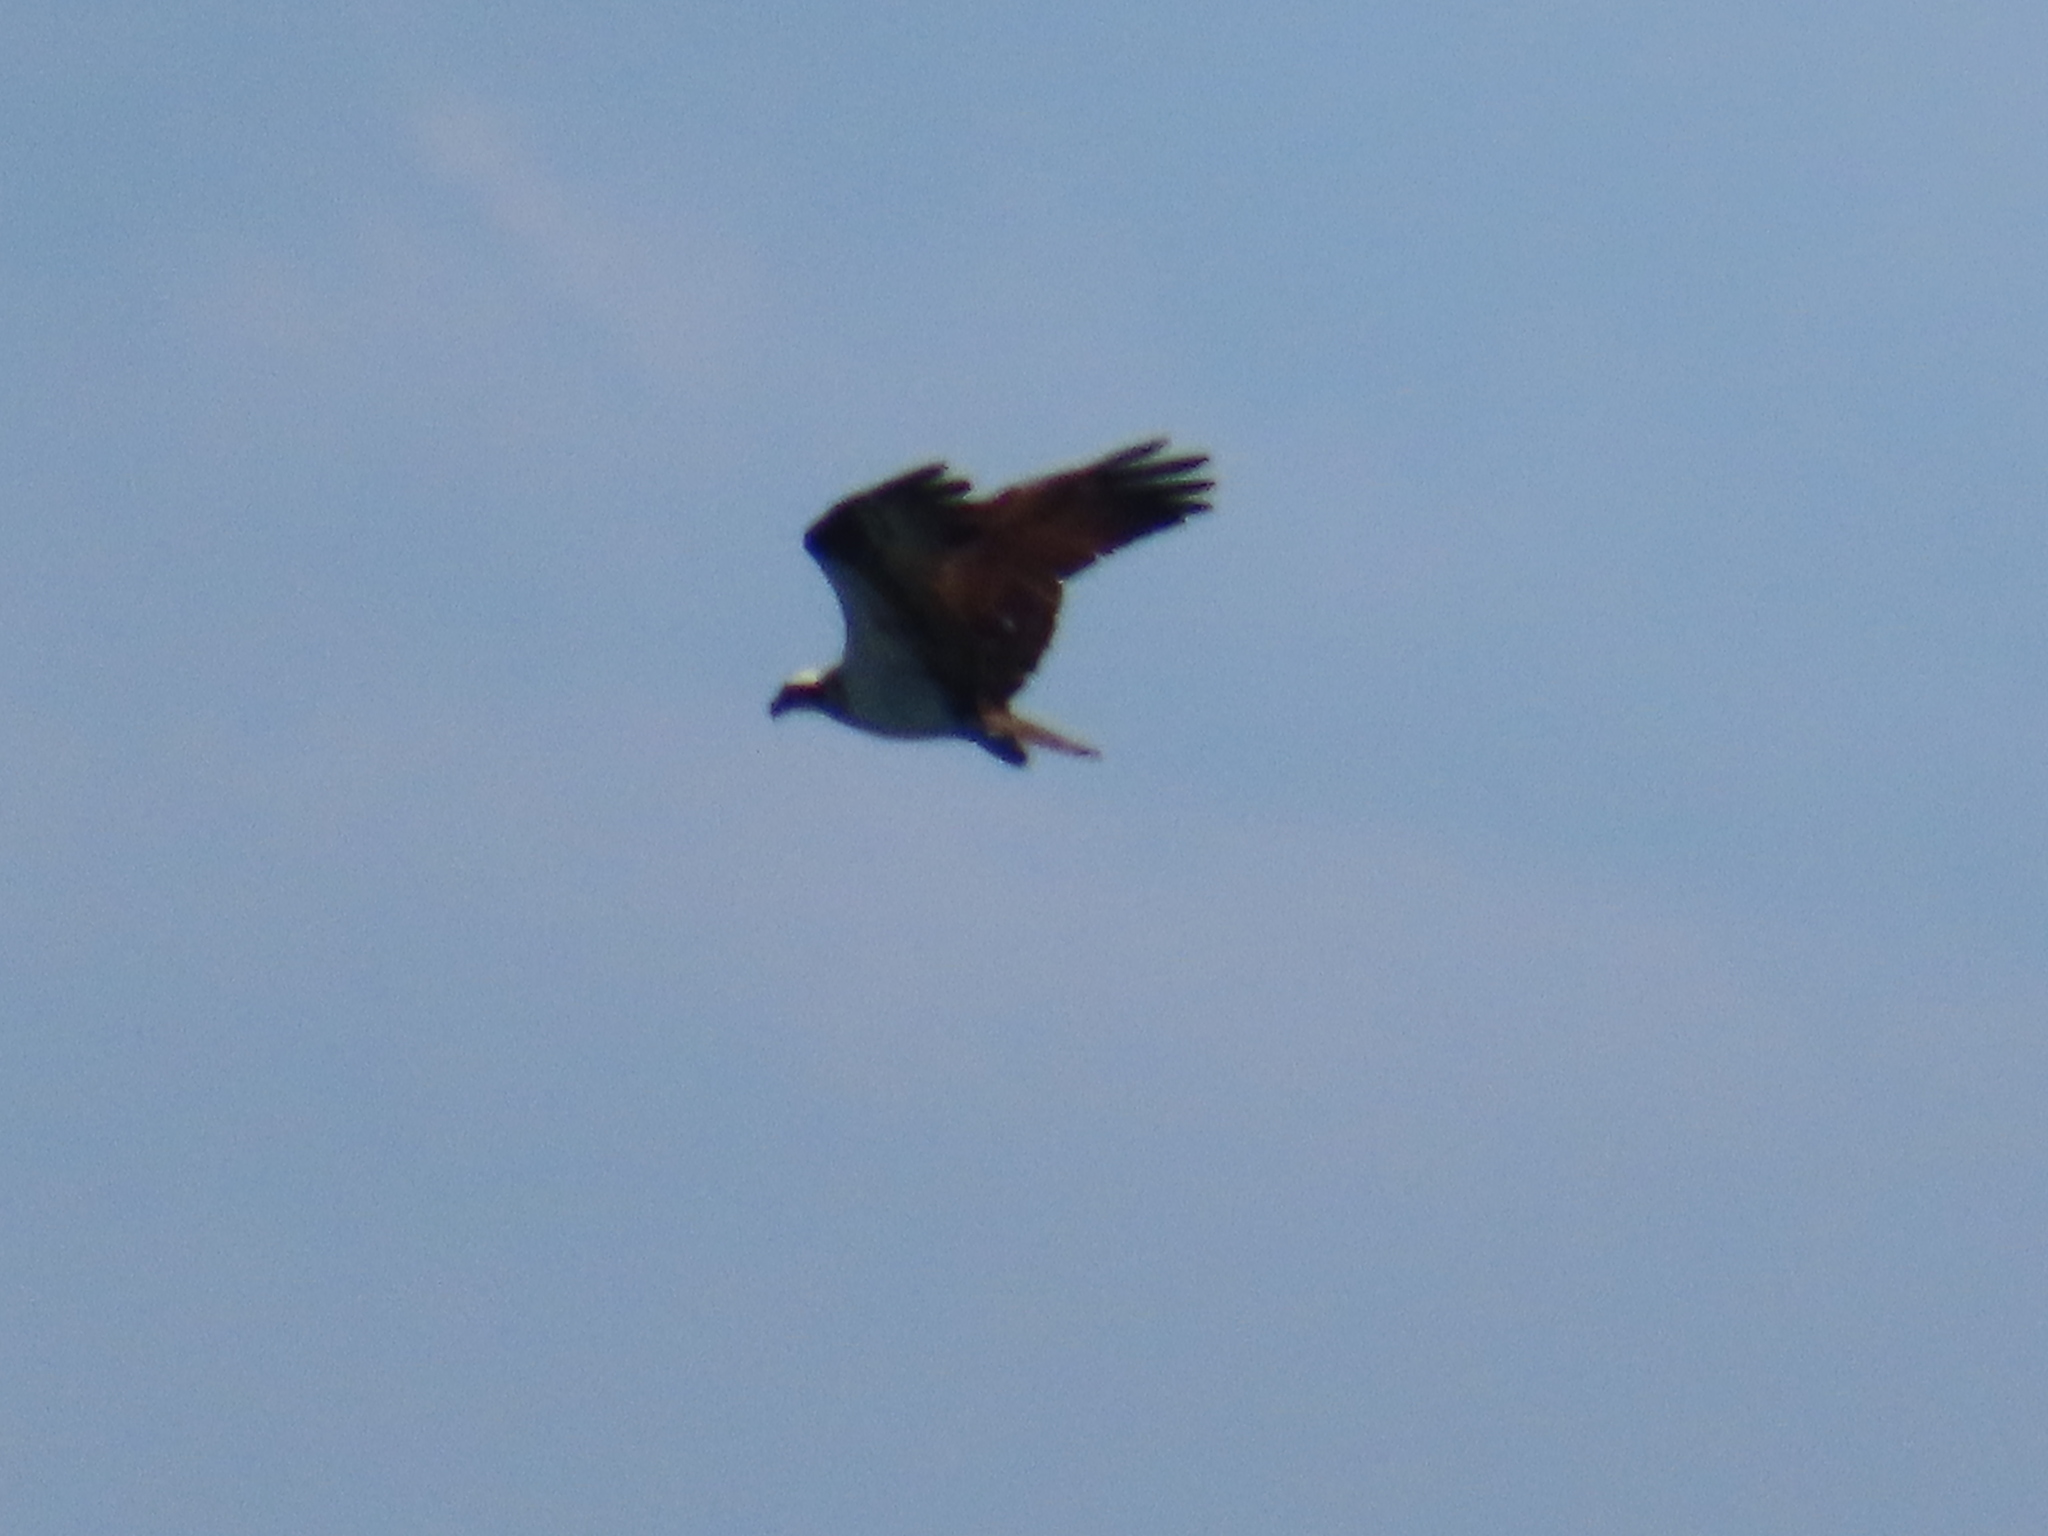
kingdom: Animalia
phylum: Chordata
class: Aves
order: Accipitriformes
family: Pandionidae
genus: Pandion
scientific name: Pandion haliaetus
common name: Osprey
